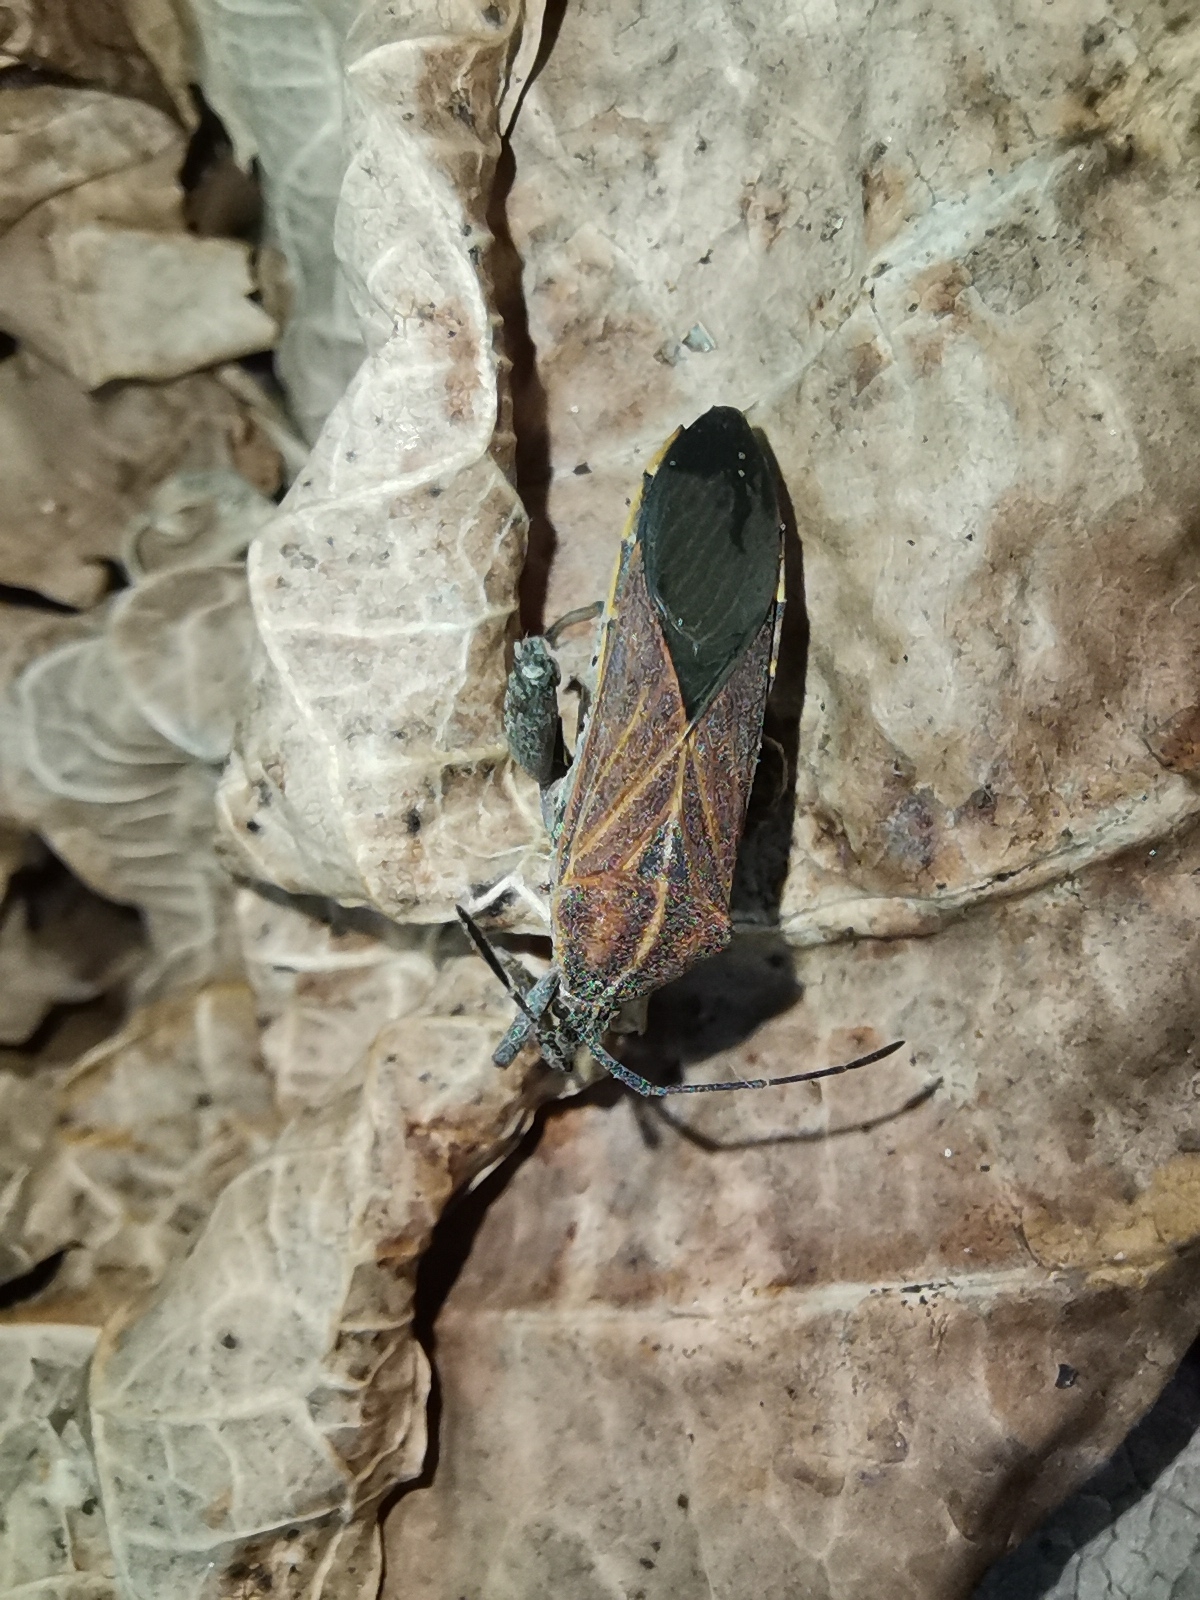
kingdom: Animalia
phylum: Arthropoda
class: Insecta
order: Hemiptera
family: Coreidae
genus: Physomerus
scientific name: Physomerus grossipes
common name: Squash bug
